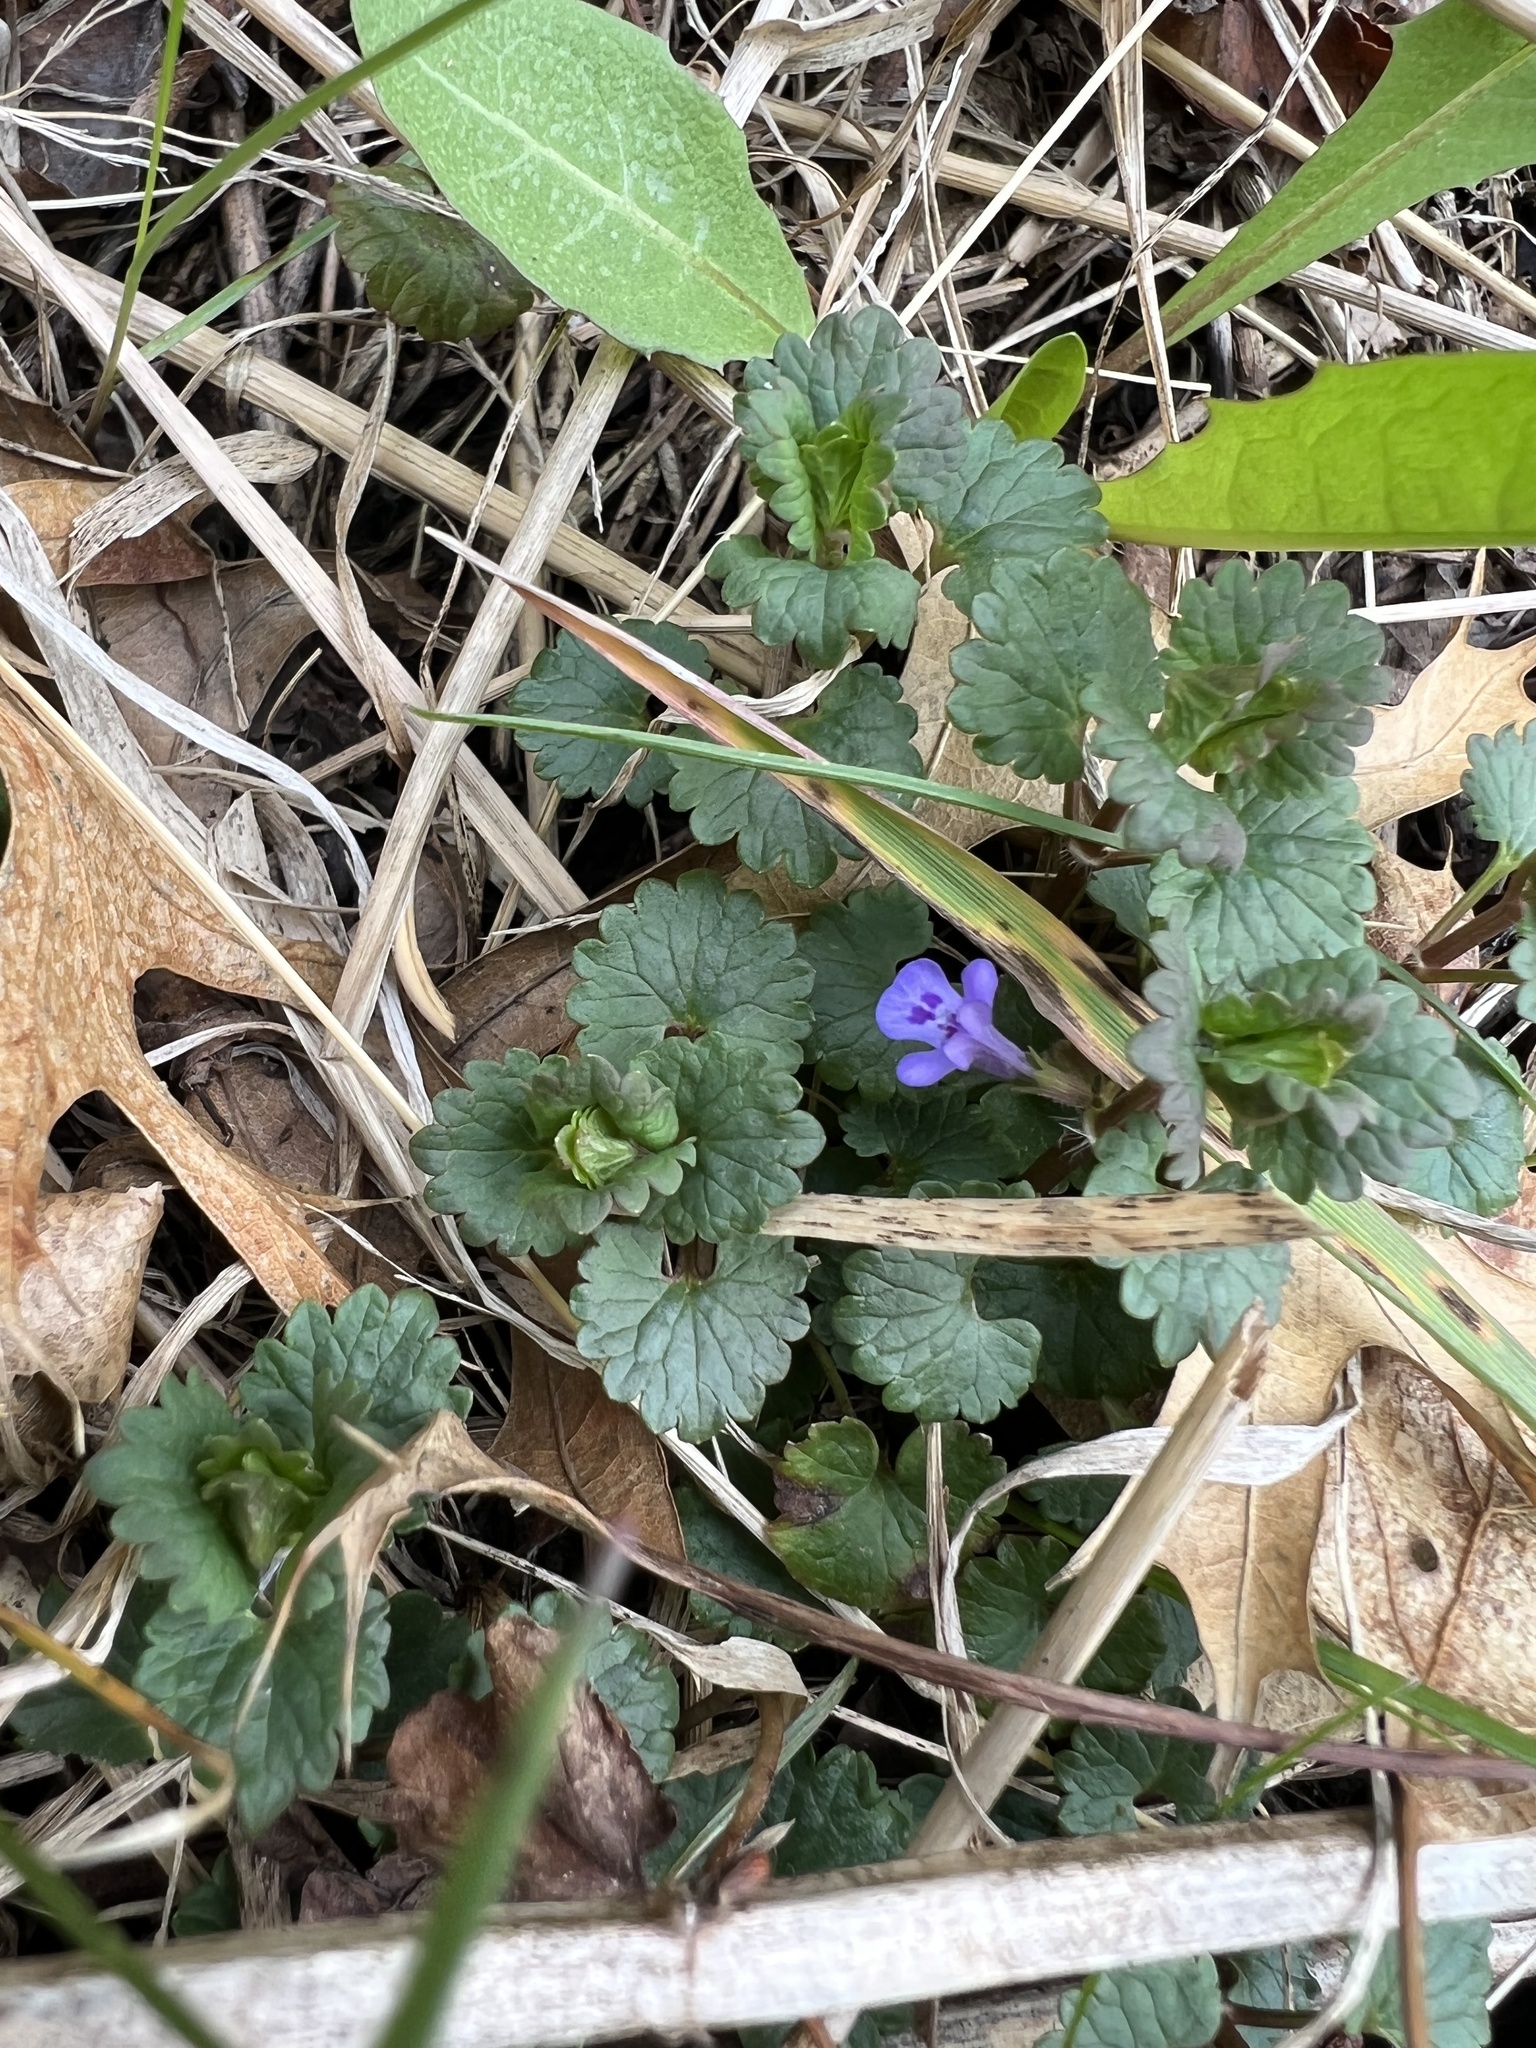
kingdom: Plantae
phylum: Tracheophyta
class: Magnoliopsida
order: Lamiales
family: Lamiaceae
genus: Glechoma
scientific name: Glechoma hederacea
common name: Ground ivy
